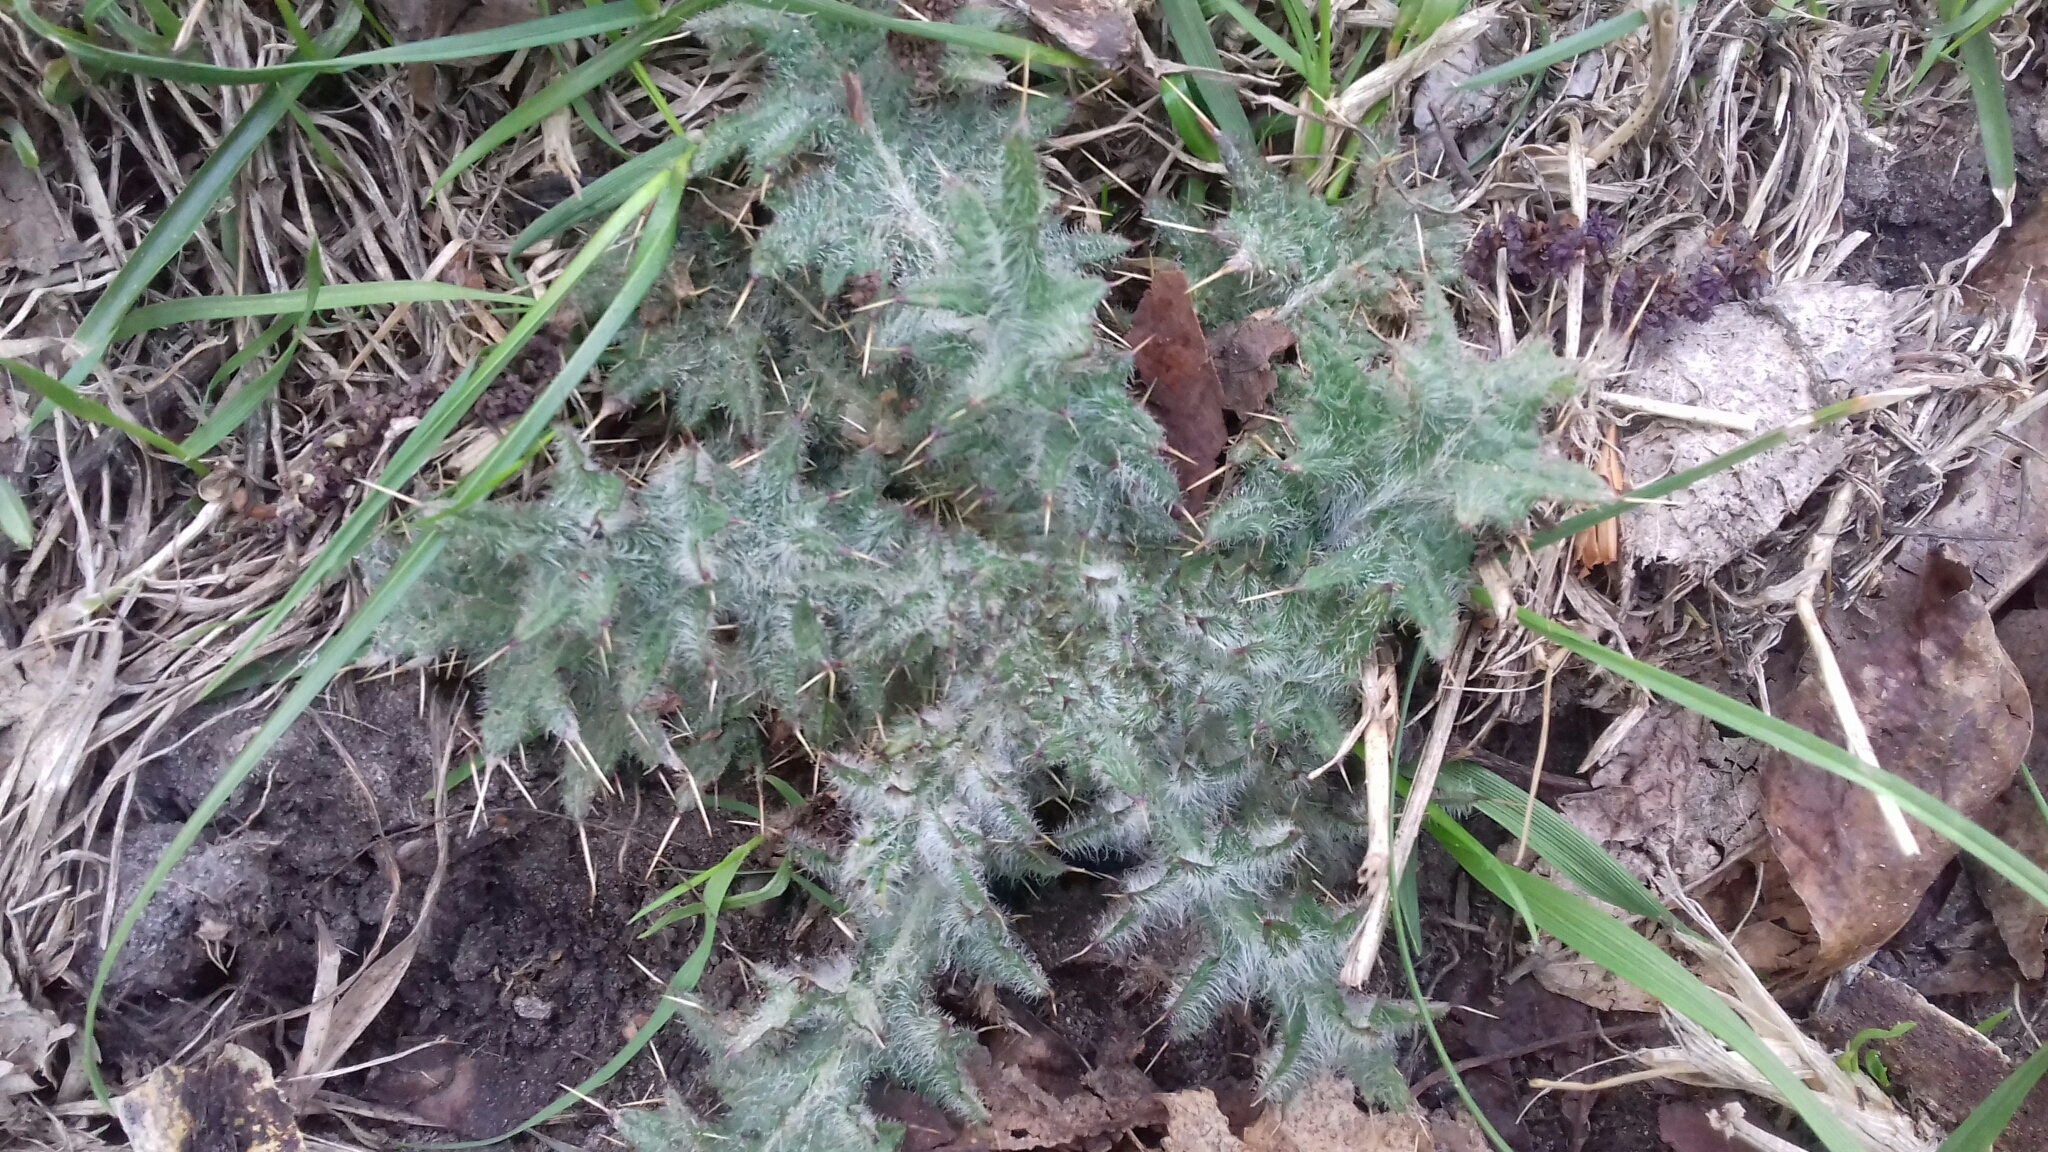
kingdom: Plantae
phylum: Tracheophyta
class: Magnoliopsida
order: Asterales
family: Asteraceae
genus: Cirsium
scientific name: Cirsium vulgare
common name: Bull thistle
